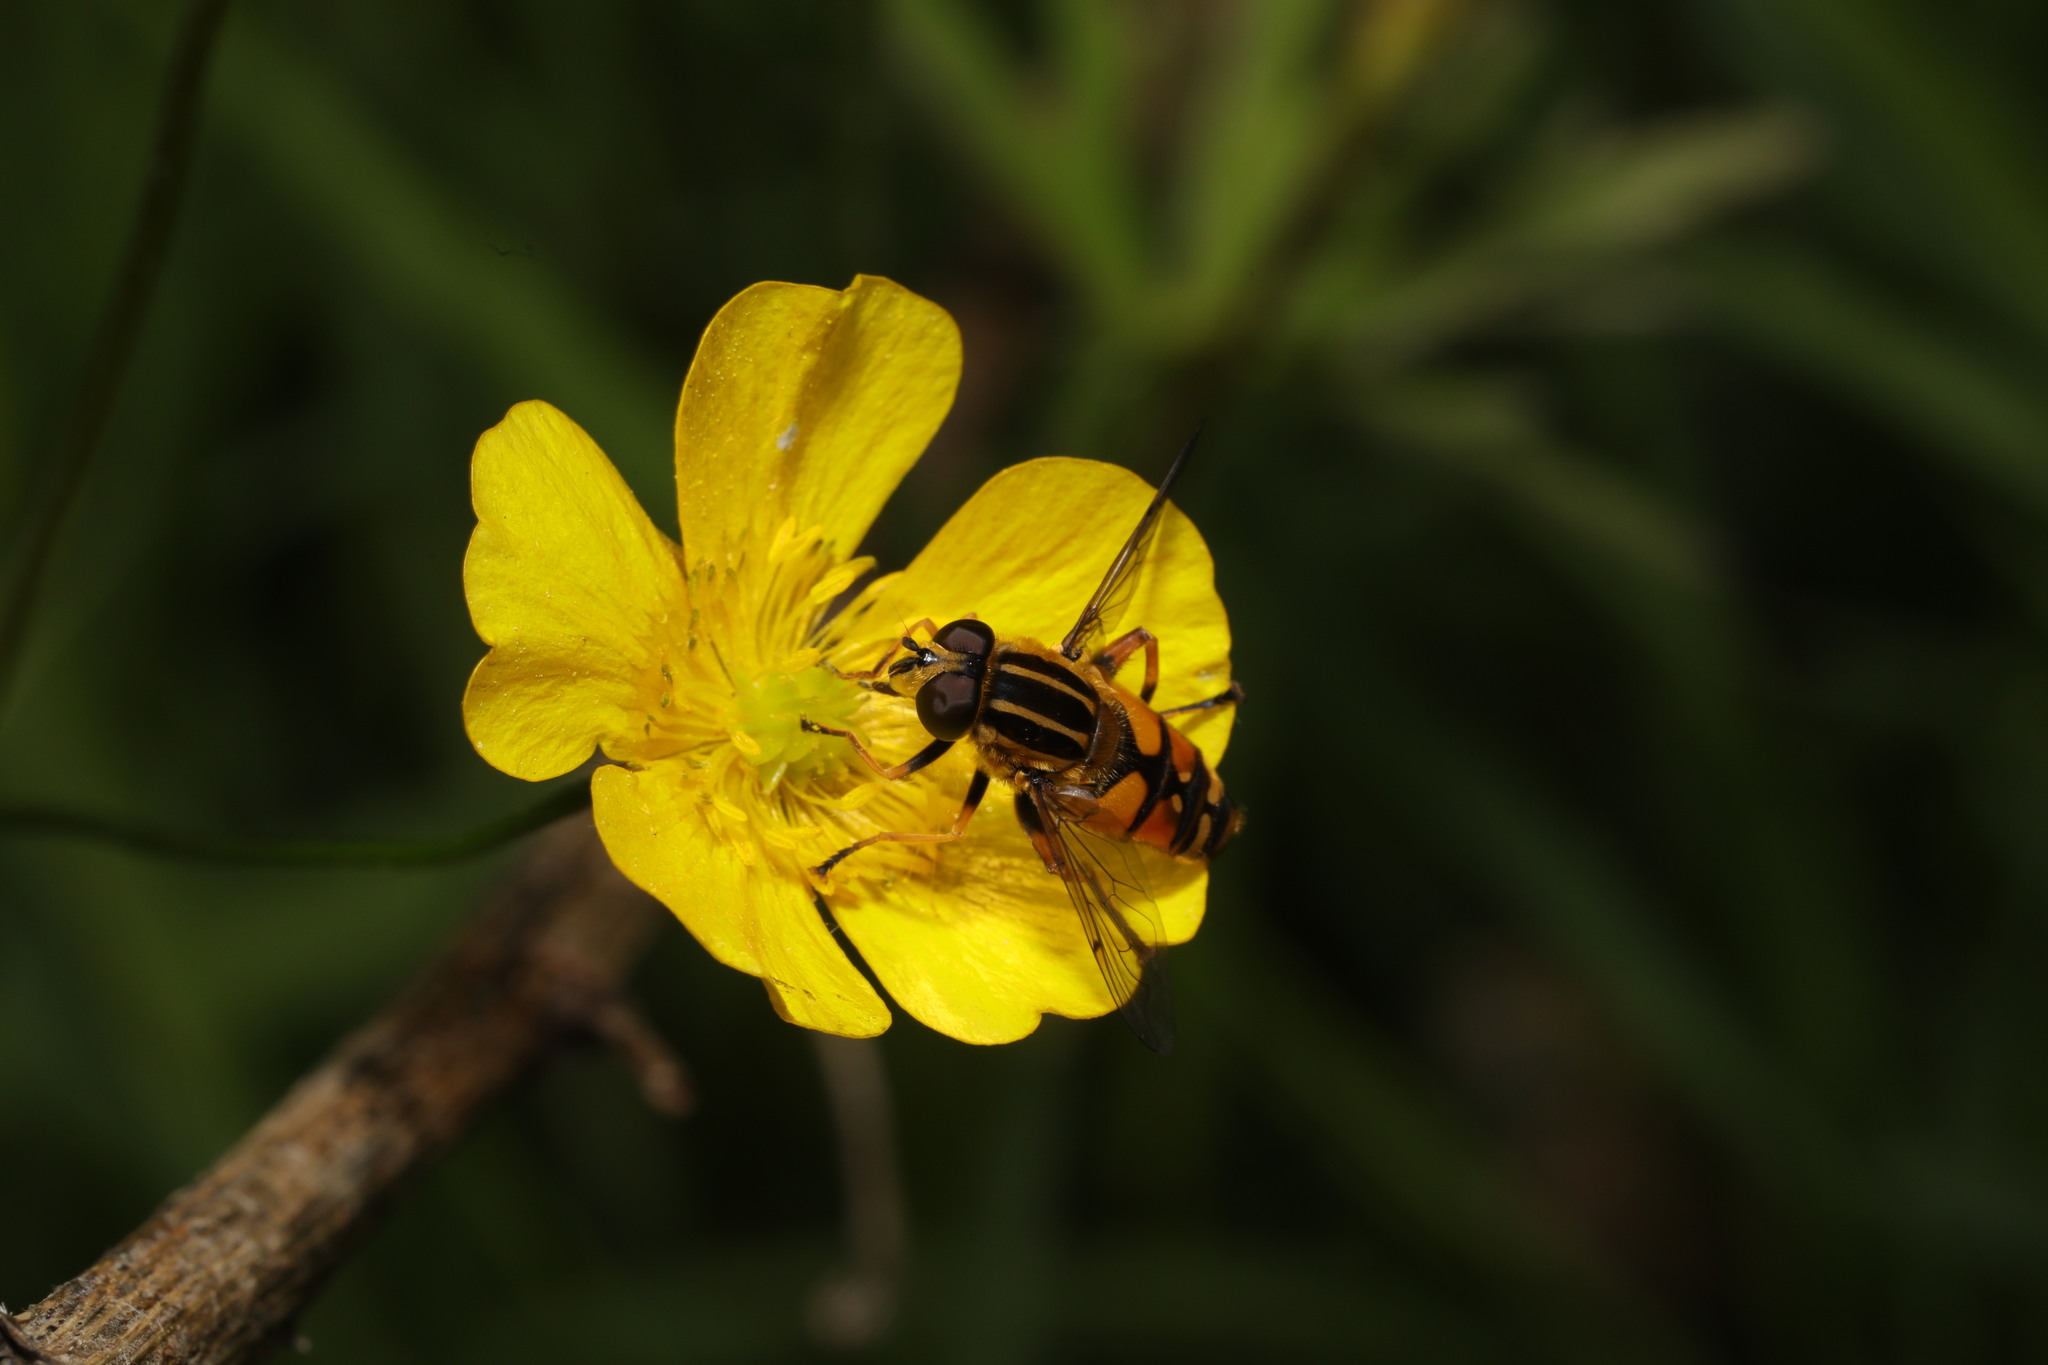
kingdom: Animalia
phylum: Arthropoda
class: Insecta
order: Diptera
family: Syrphidae
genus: Helophilus
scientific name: Helophilus pendulus
